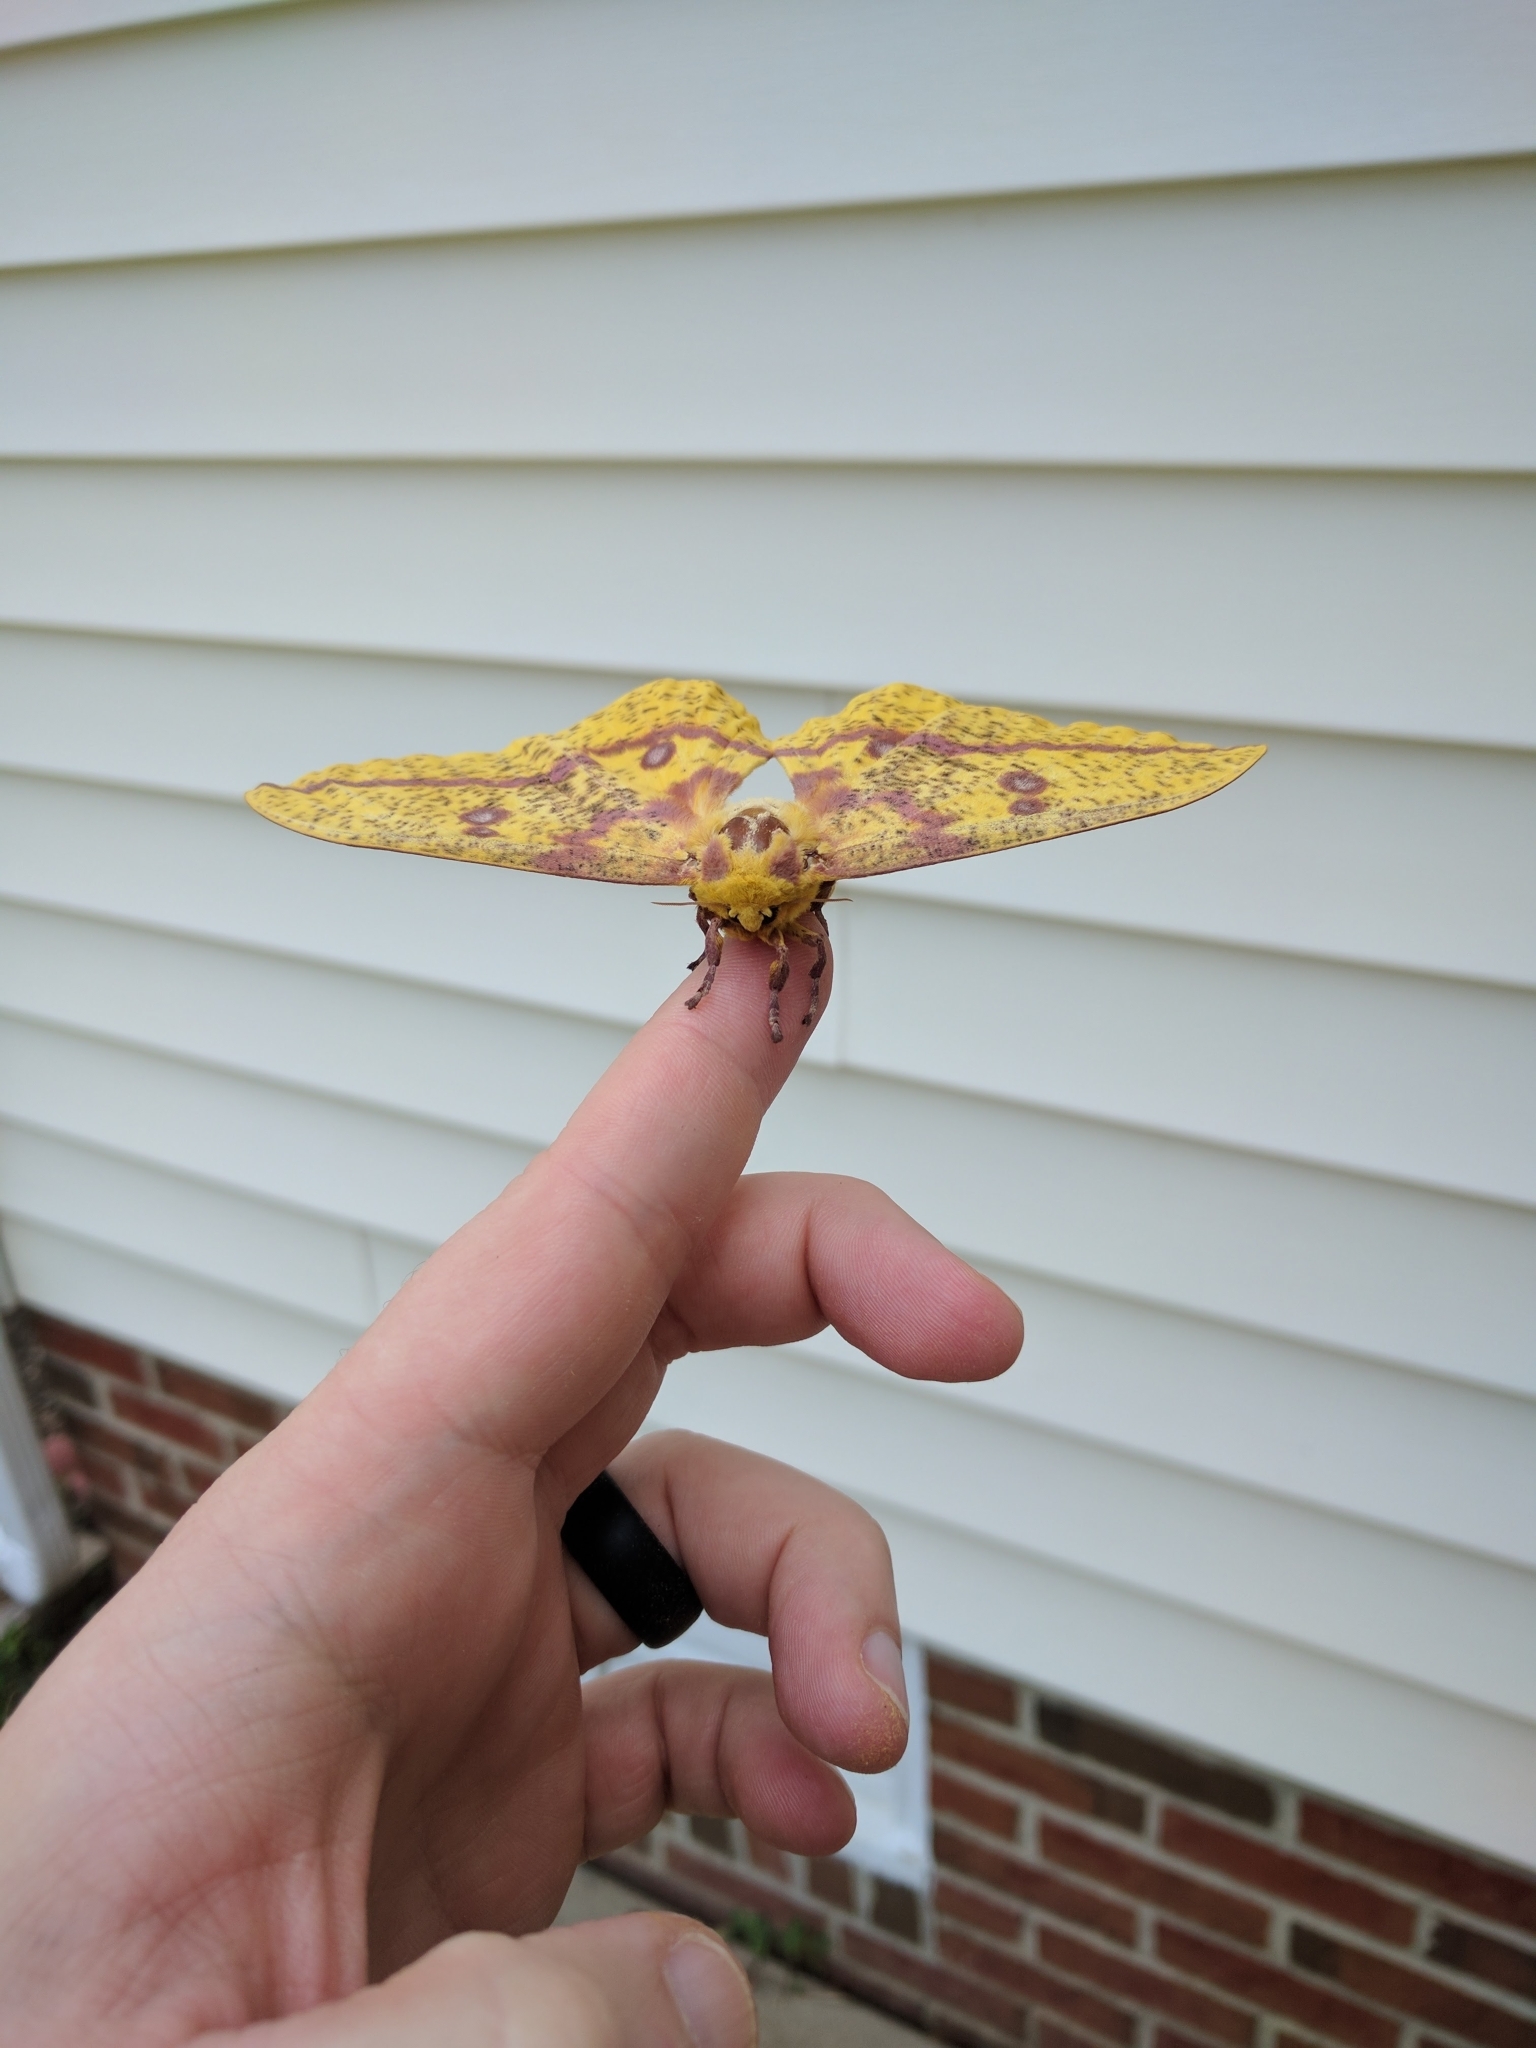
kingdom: Animalia
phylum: Arthropoda
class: Insecta
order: Lepidoptera
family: Saturniidae
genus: Eacles
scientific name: Eacles imperialis
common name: Imperial moth
